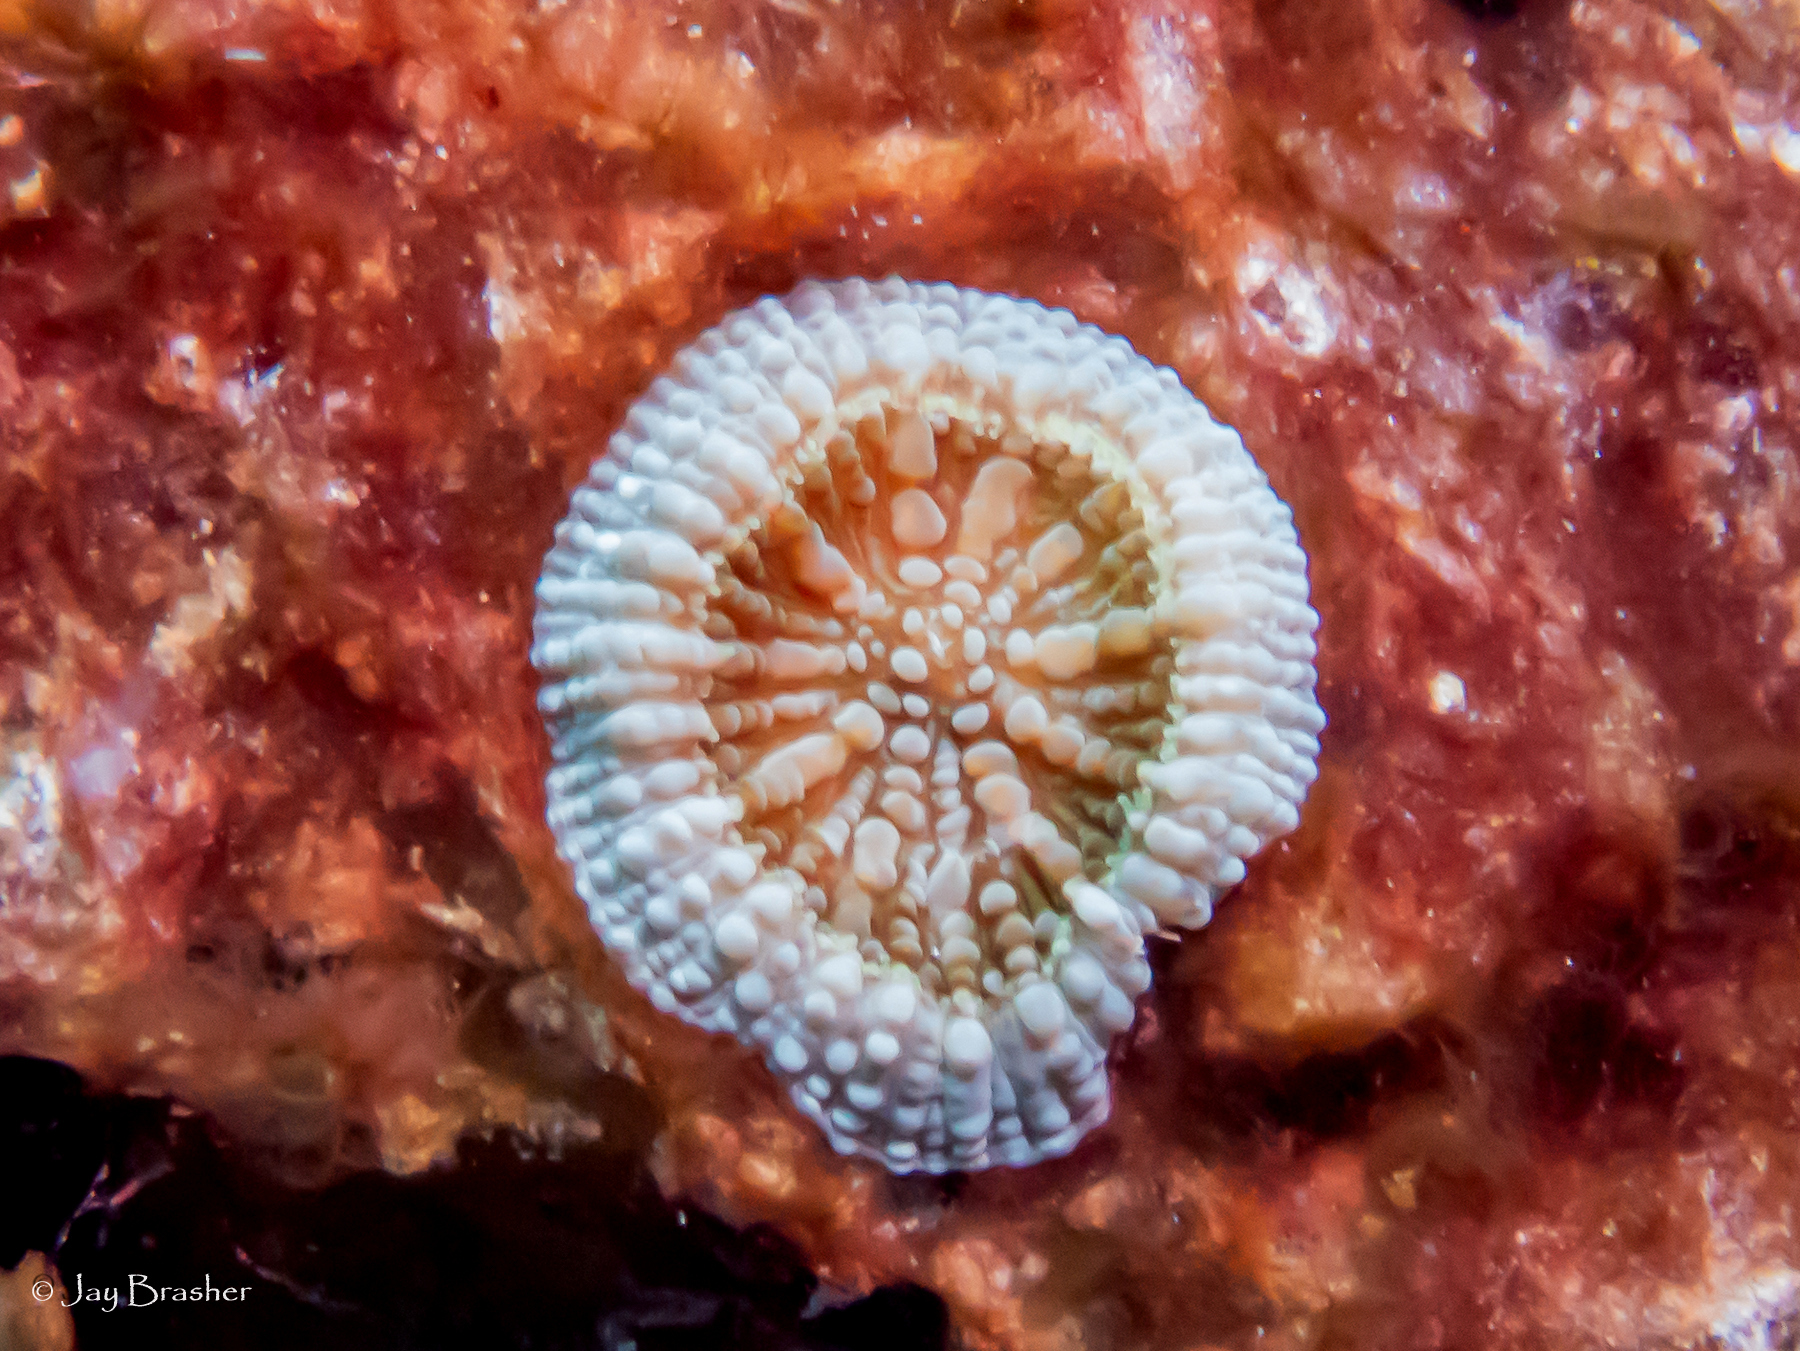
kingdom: Animalia
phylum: Cnidaria
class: Anthozoa
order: Scleractinia
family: Faviidae
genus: Scolymia
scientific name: Scolymia lacera
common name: Atlantic mushroom coral
